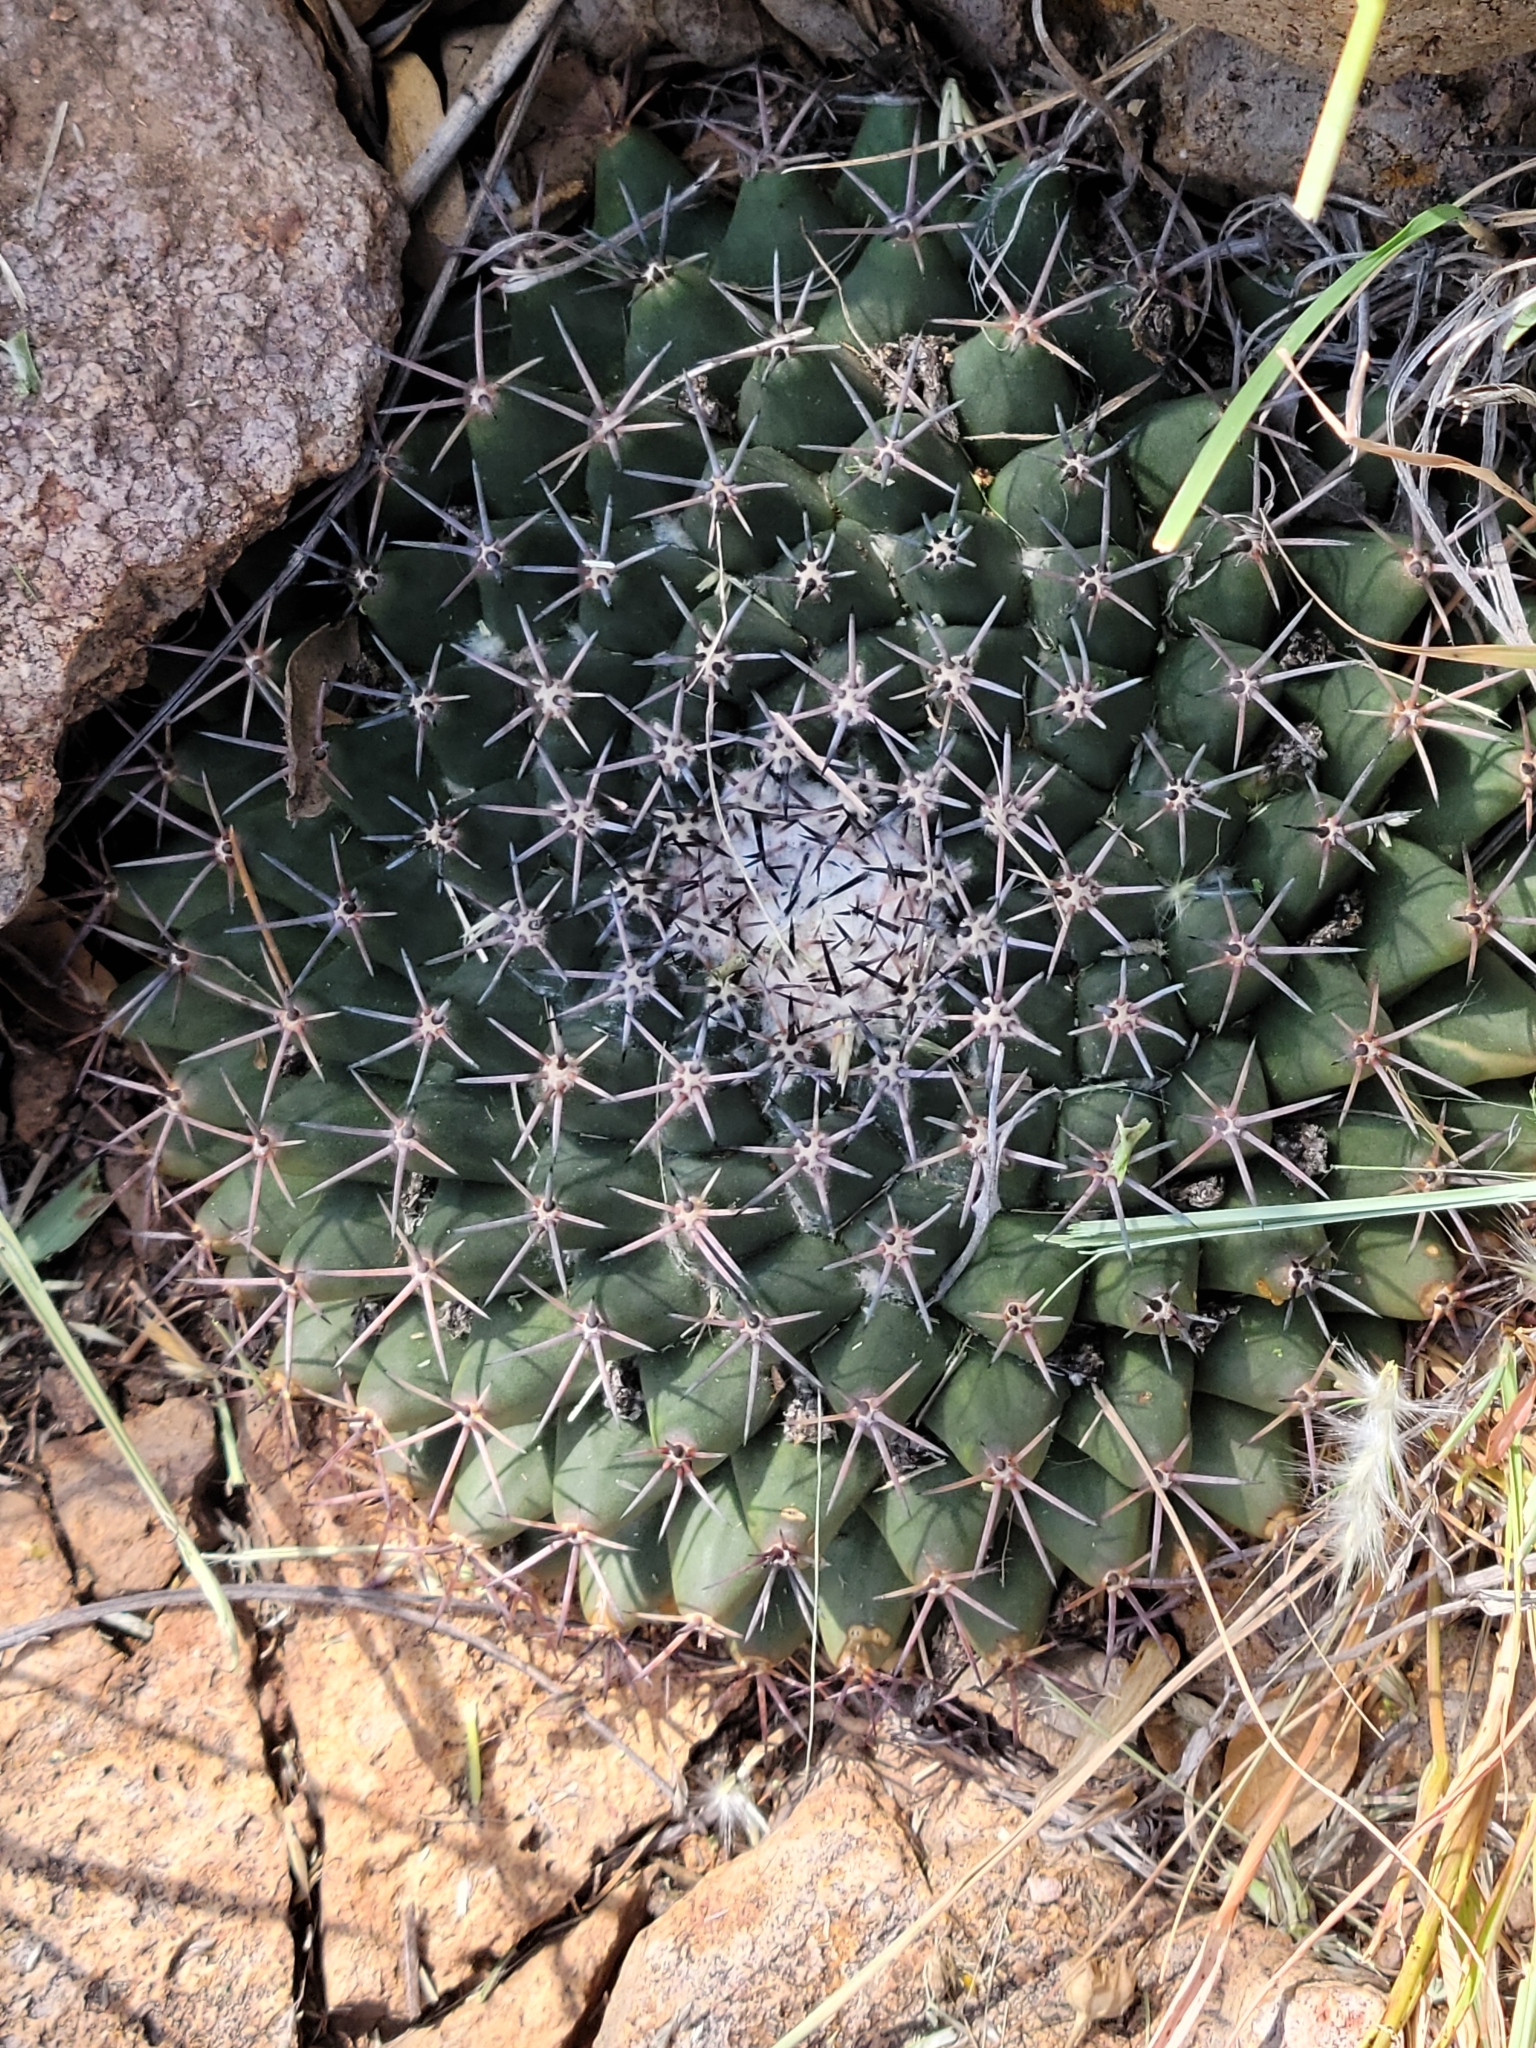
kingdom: Plantae
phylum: Tracheophyta
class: Magnoliopsida
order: Caryophyllales
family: Cactaceae
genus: Mammillaria
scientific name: Mammillaria heyderi
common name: Little nipple cactus
